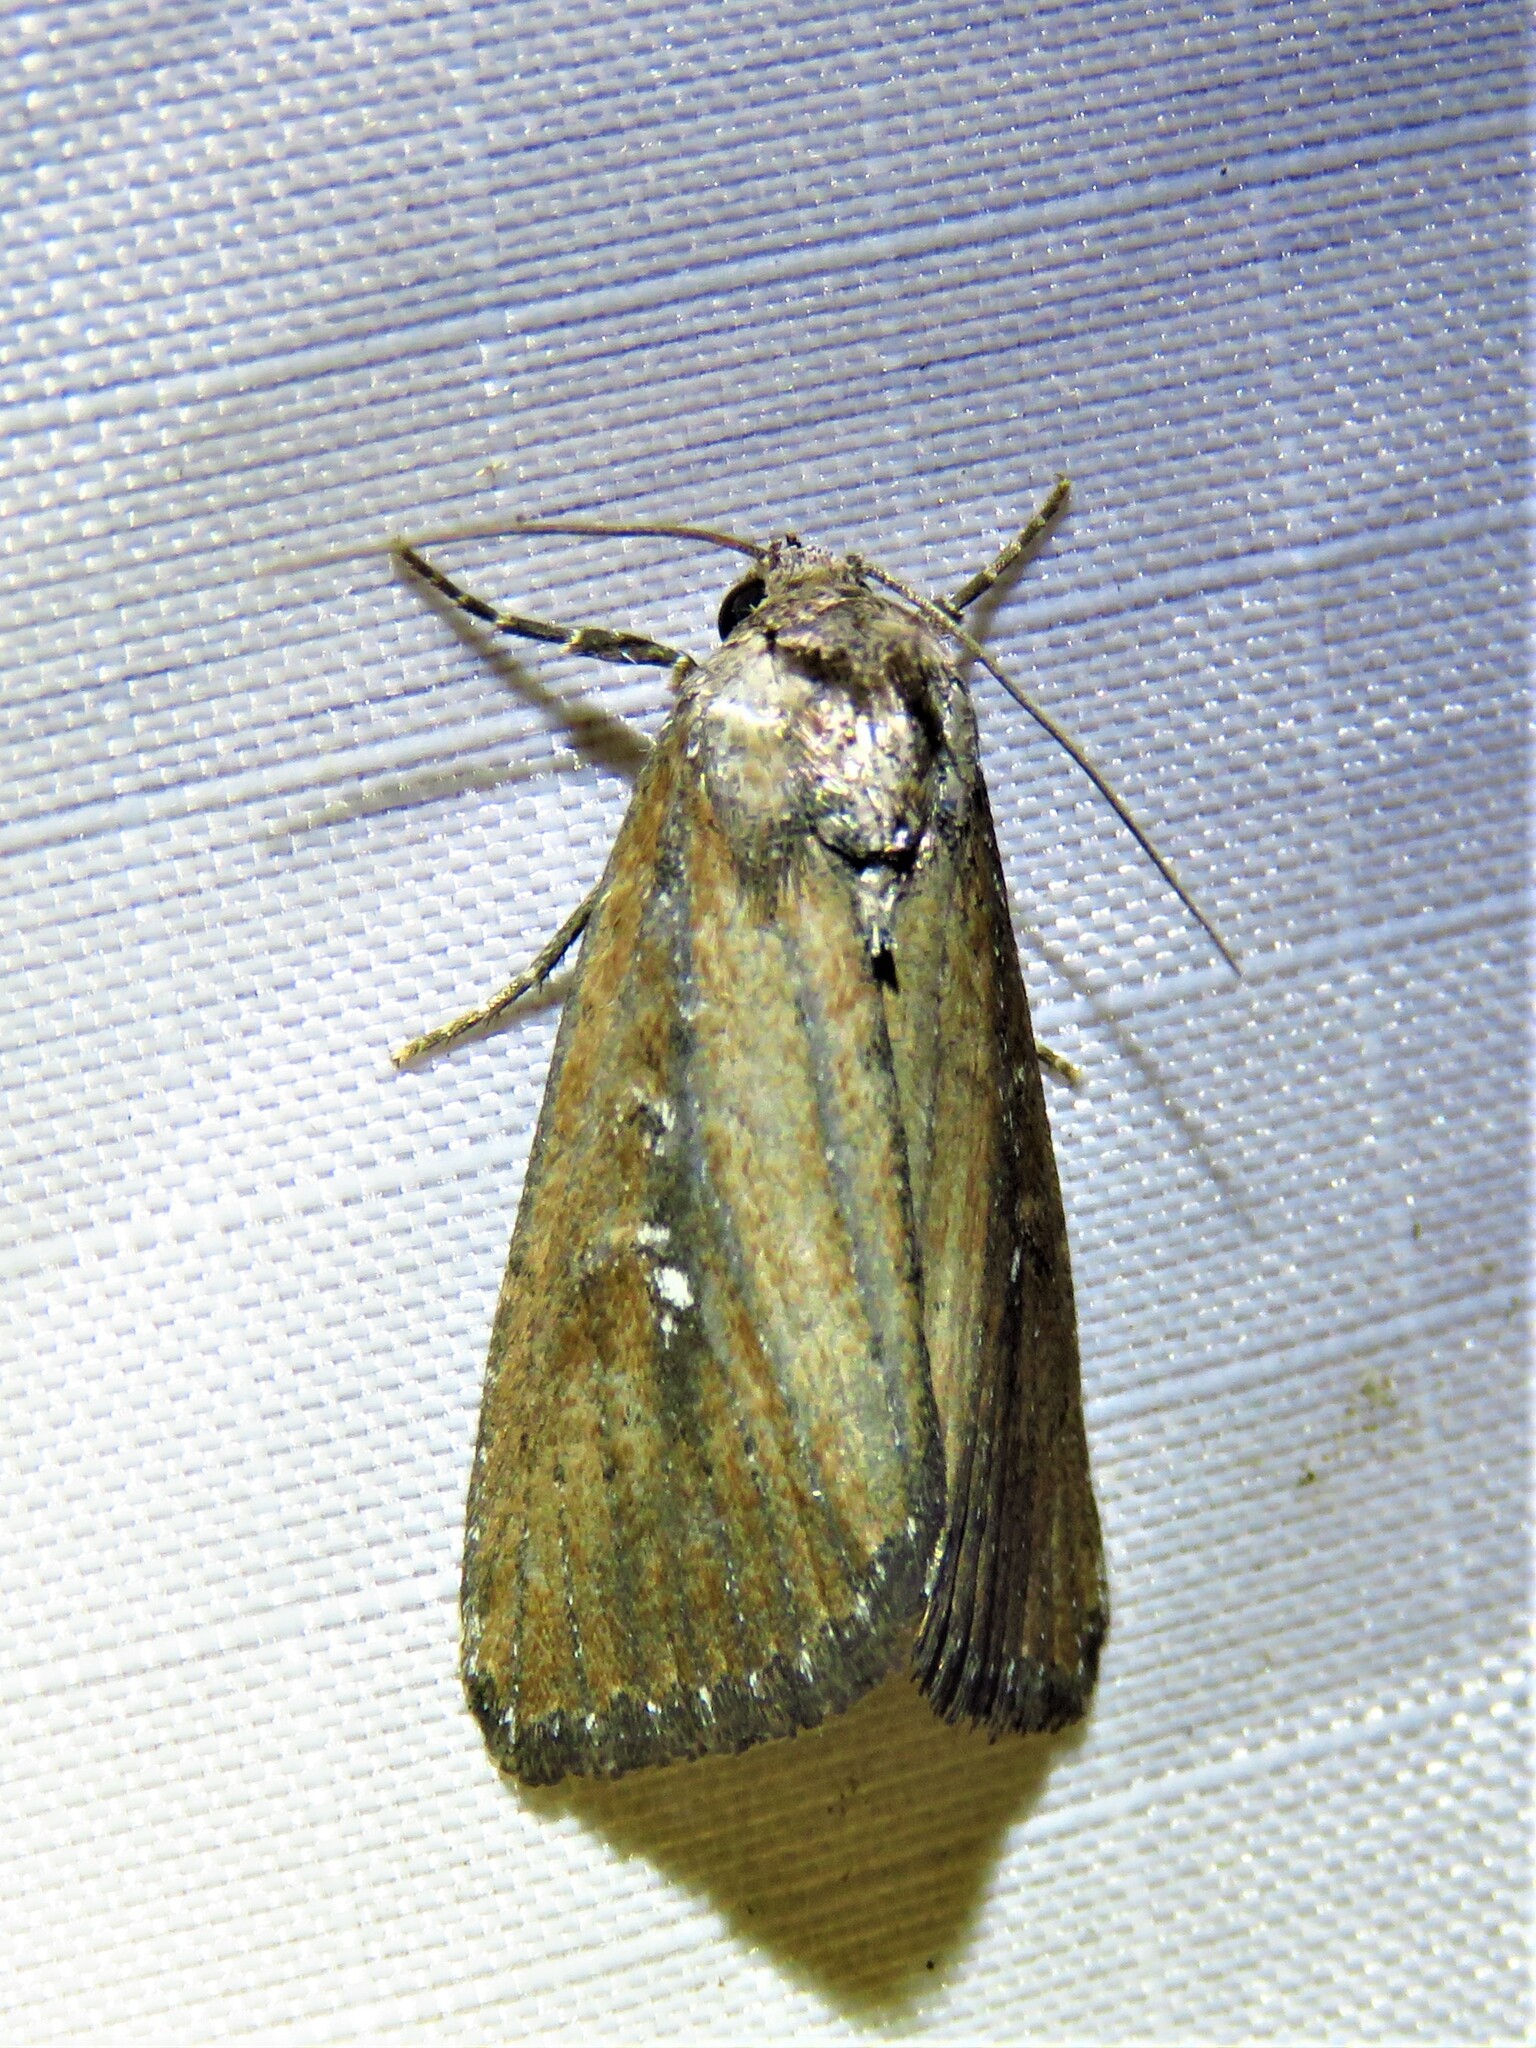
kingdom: Animalia
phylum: Arthropoda
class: Insecta
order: Lepidoptera
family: Noctuidae
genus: Condica
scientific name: Condica videns
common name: White-dotted groundling
